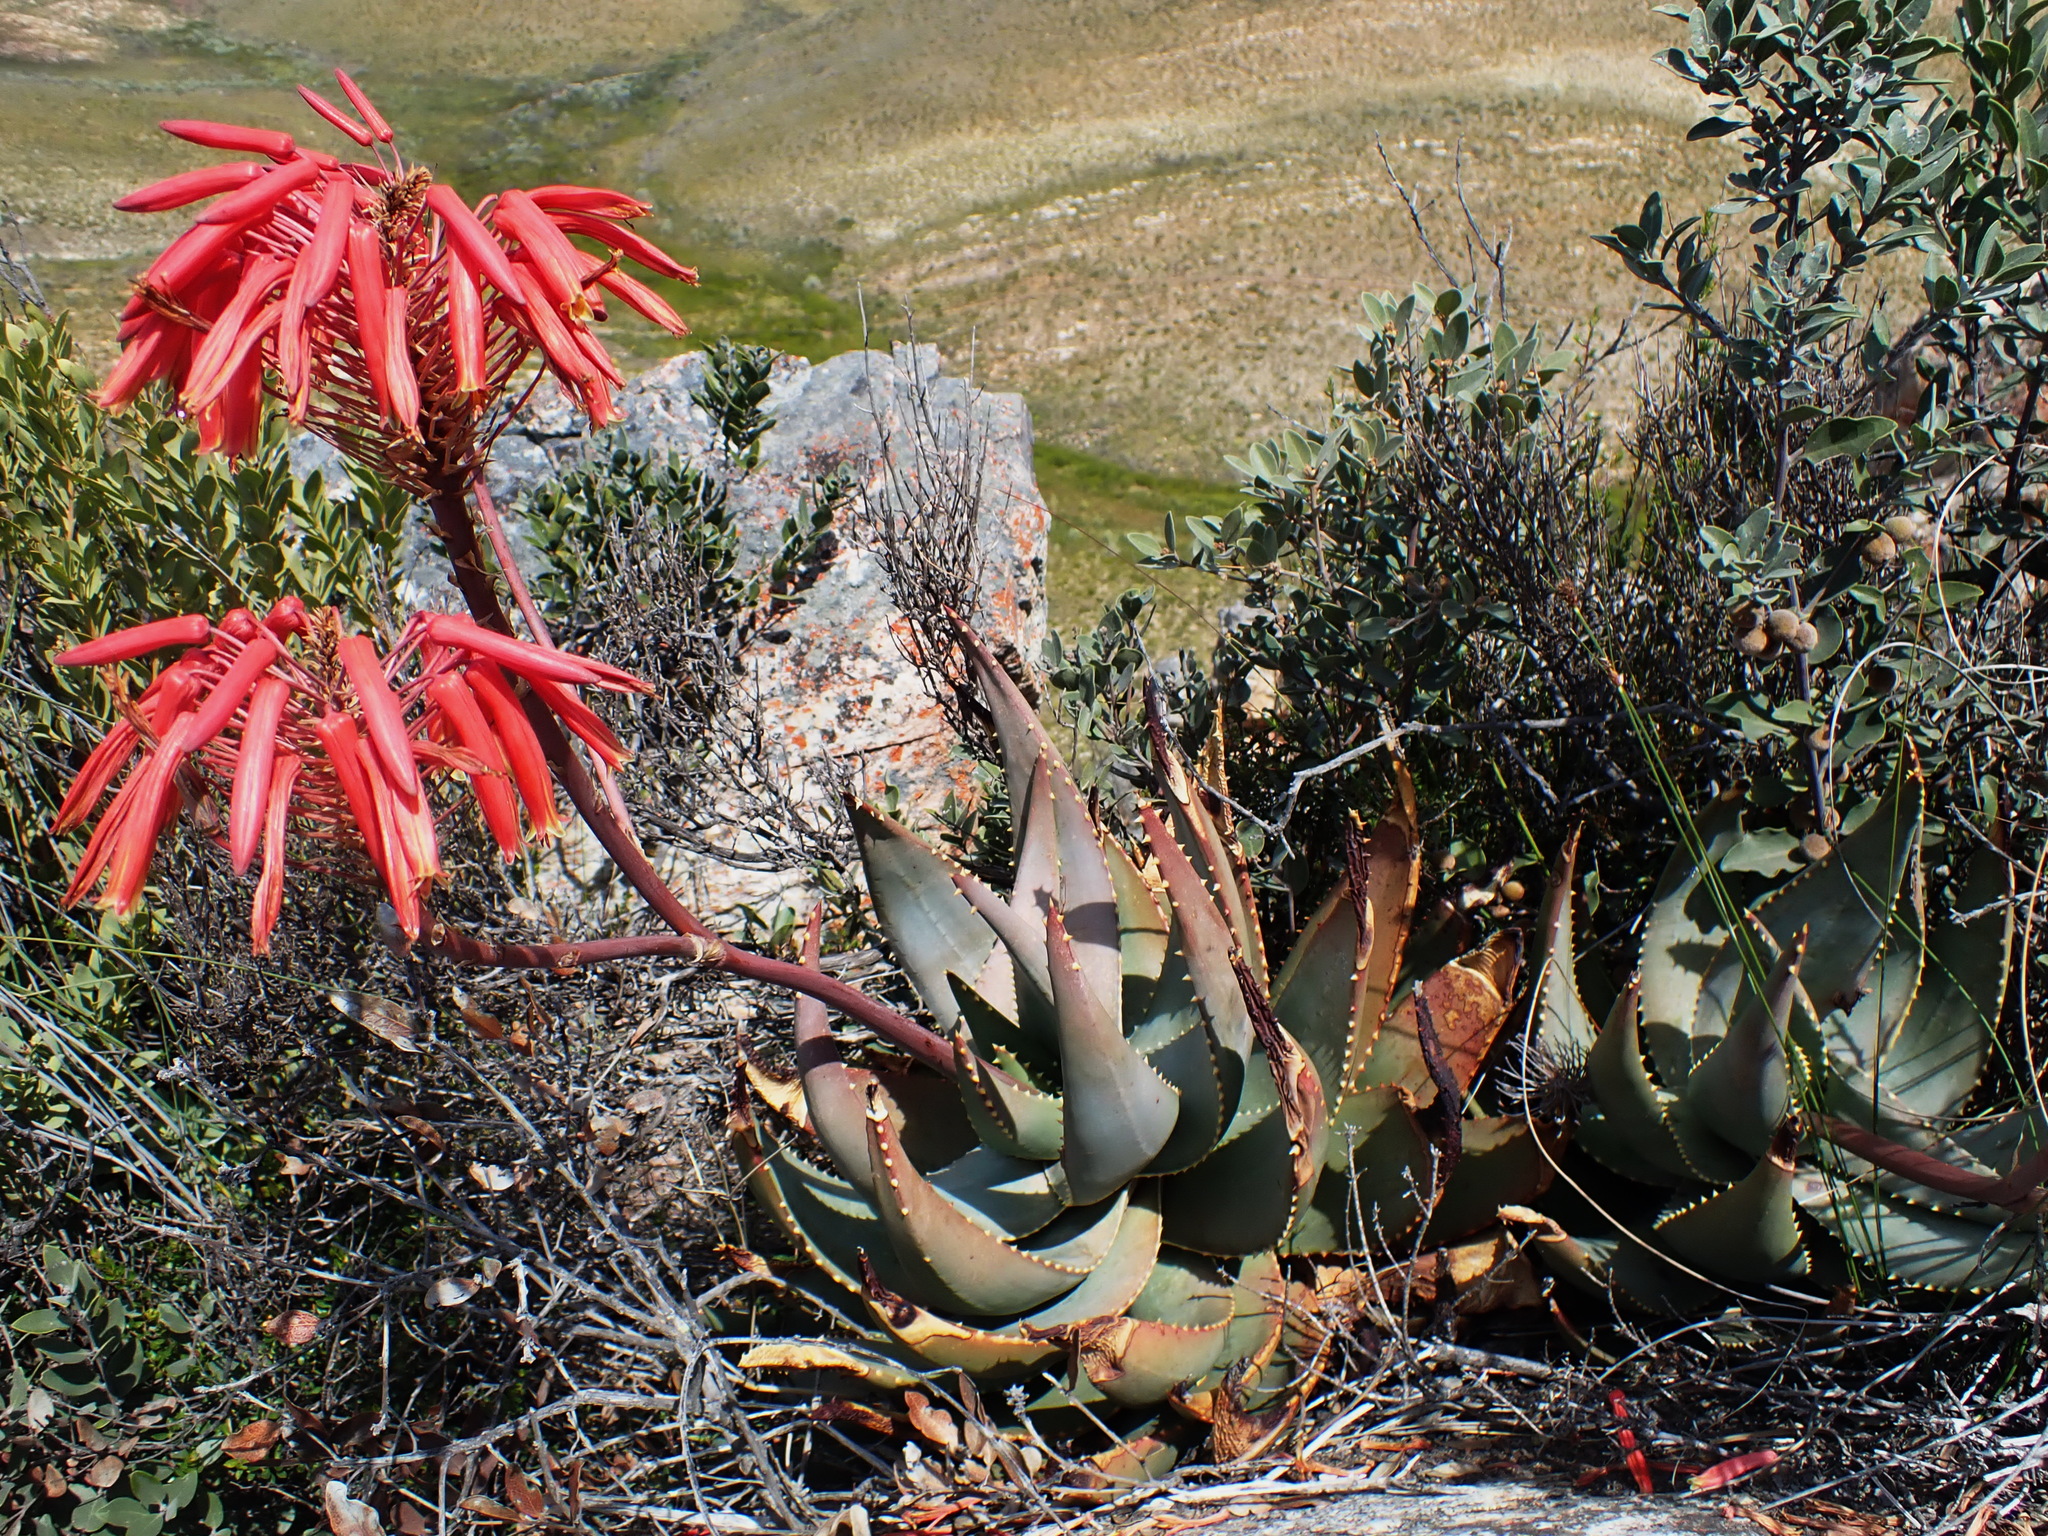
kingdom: Plantae
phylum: Tracheophyta
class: Liliopsida
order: Asparagales
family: Asphodelaceae
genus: Aloe
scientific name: Aloe comptonii
